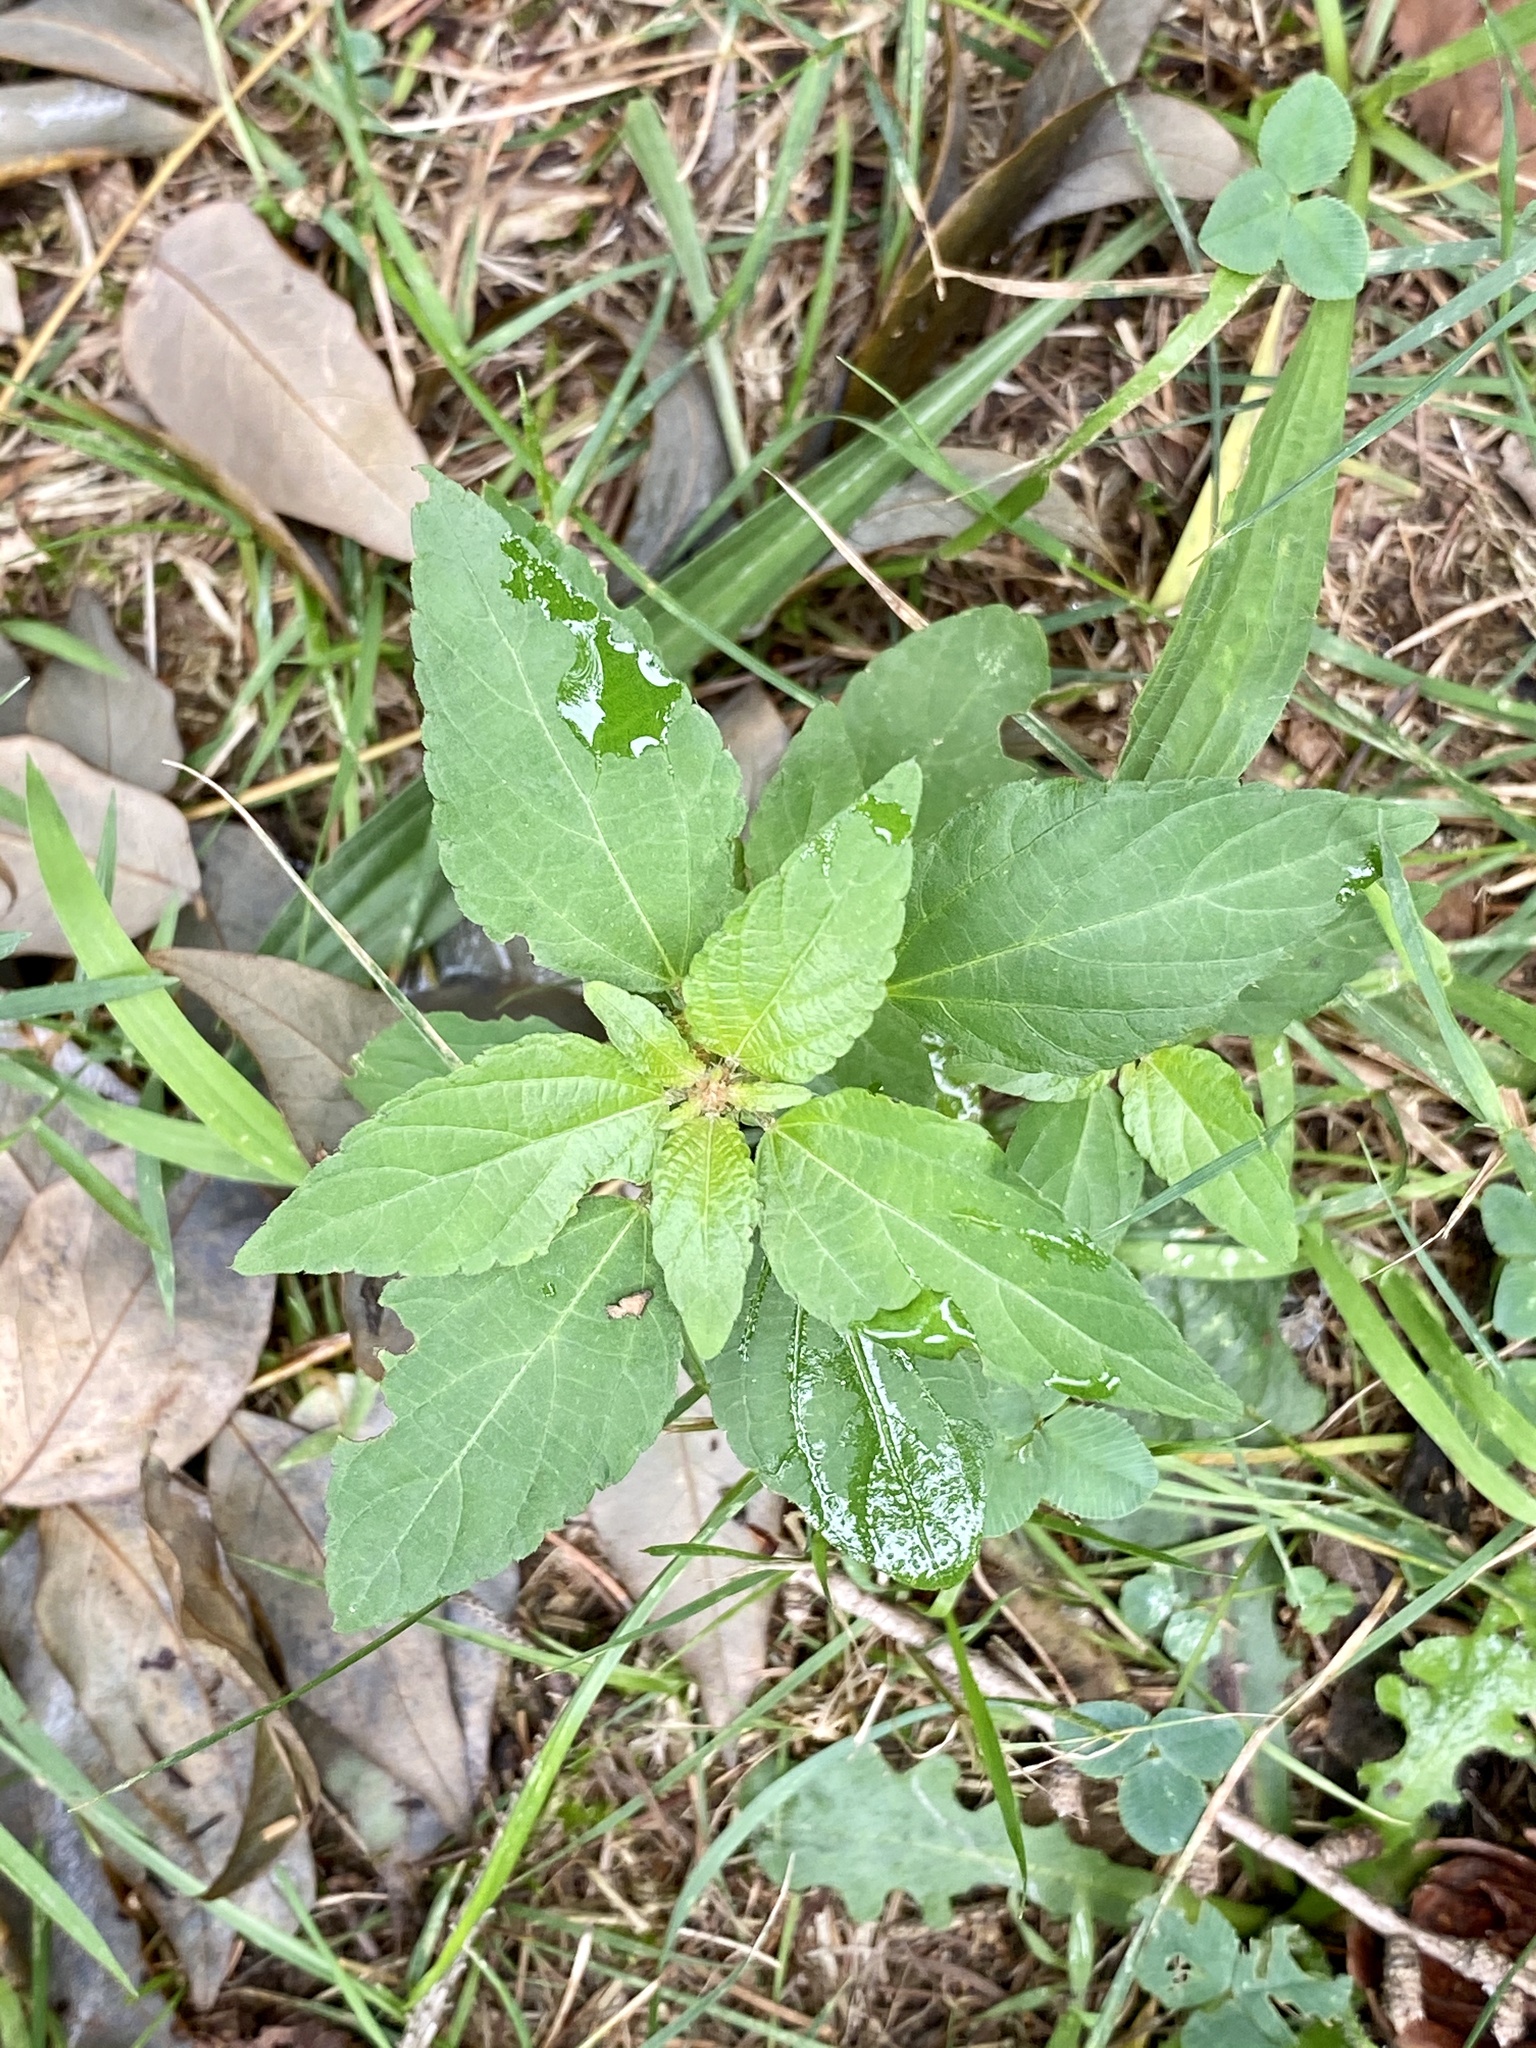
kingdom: Plantae
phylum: Tracheophyta
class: Magnoliopsida
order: Malpighiales
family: Euphorbiaceae
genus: Acalypha
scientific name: Acalypha rhomboidea
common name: Rhombic copperleaf
